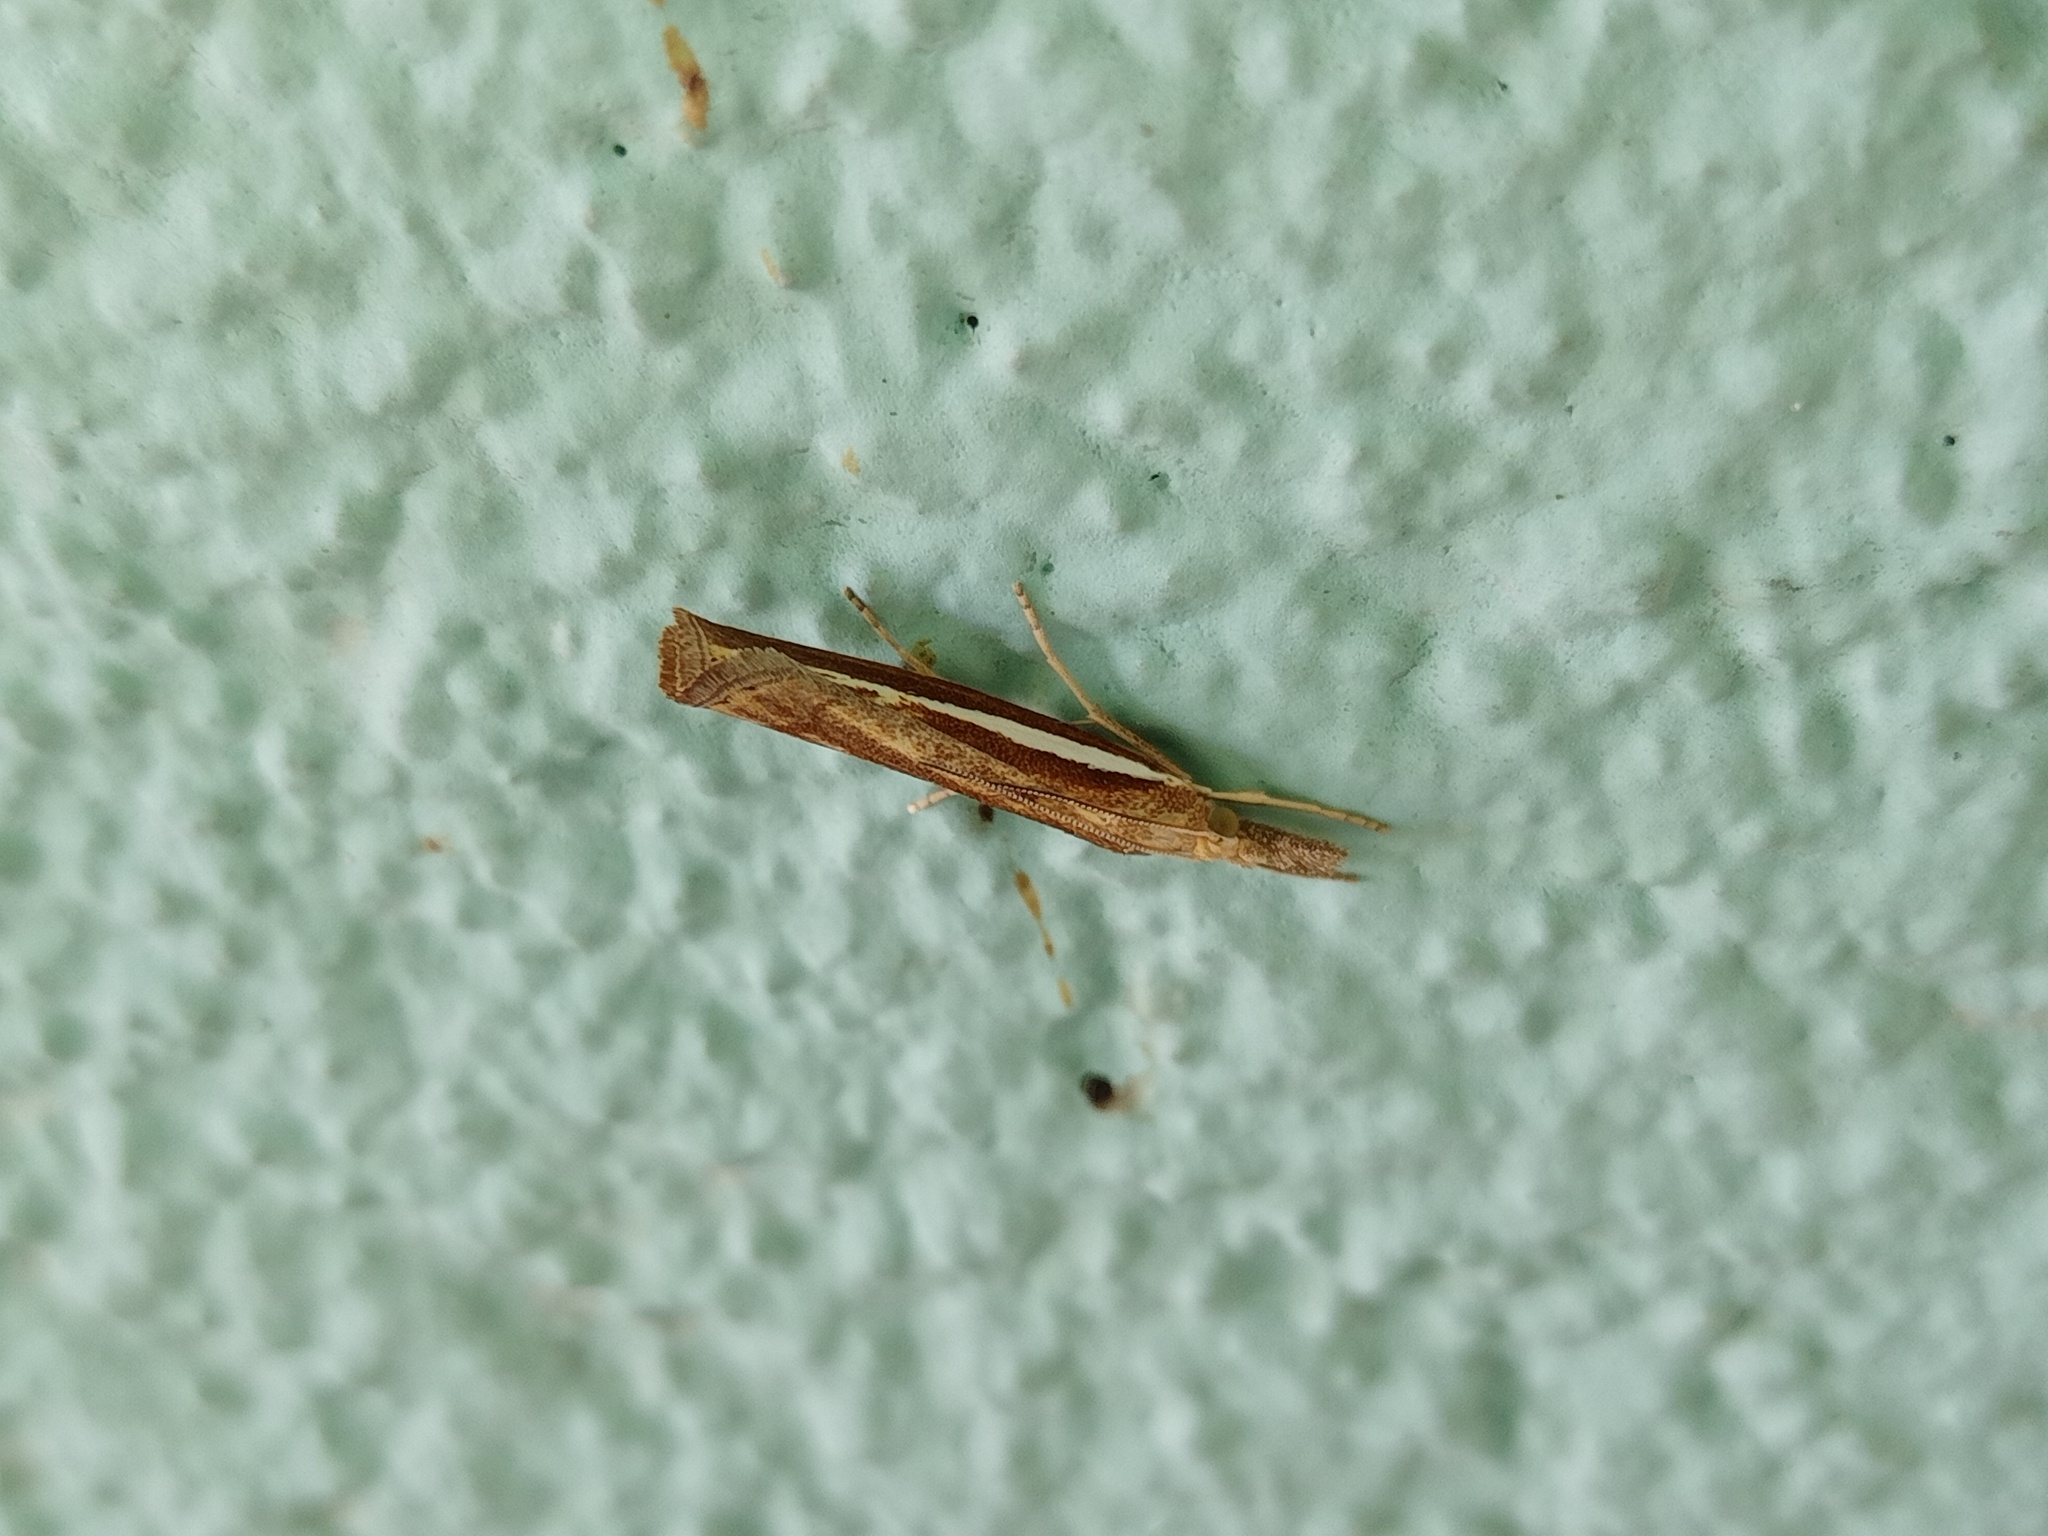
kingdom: Animalia
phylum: Arthropoda
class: Insecta
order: Lepidoptera
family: Crambidae
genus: Agriphila
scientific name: Agriphila tristellus
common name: Common grass-veneer
